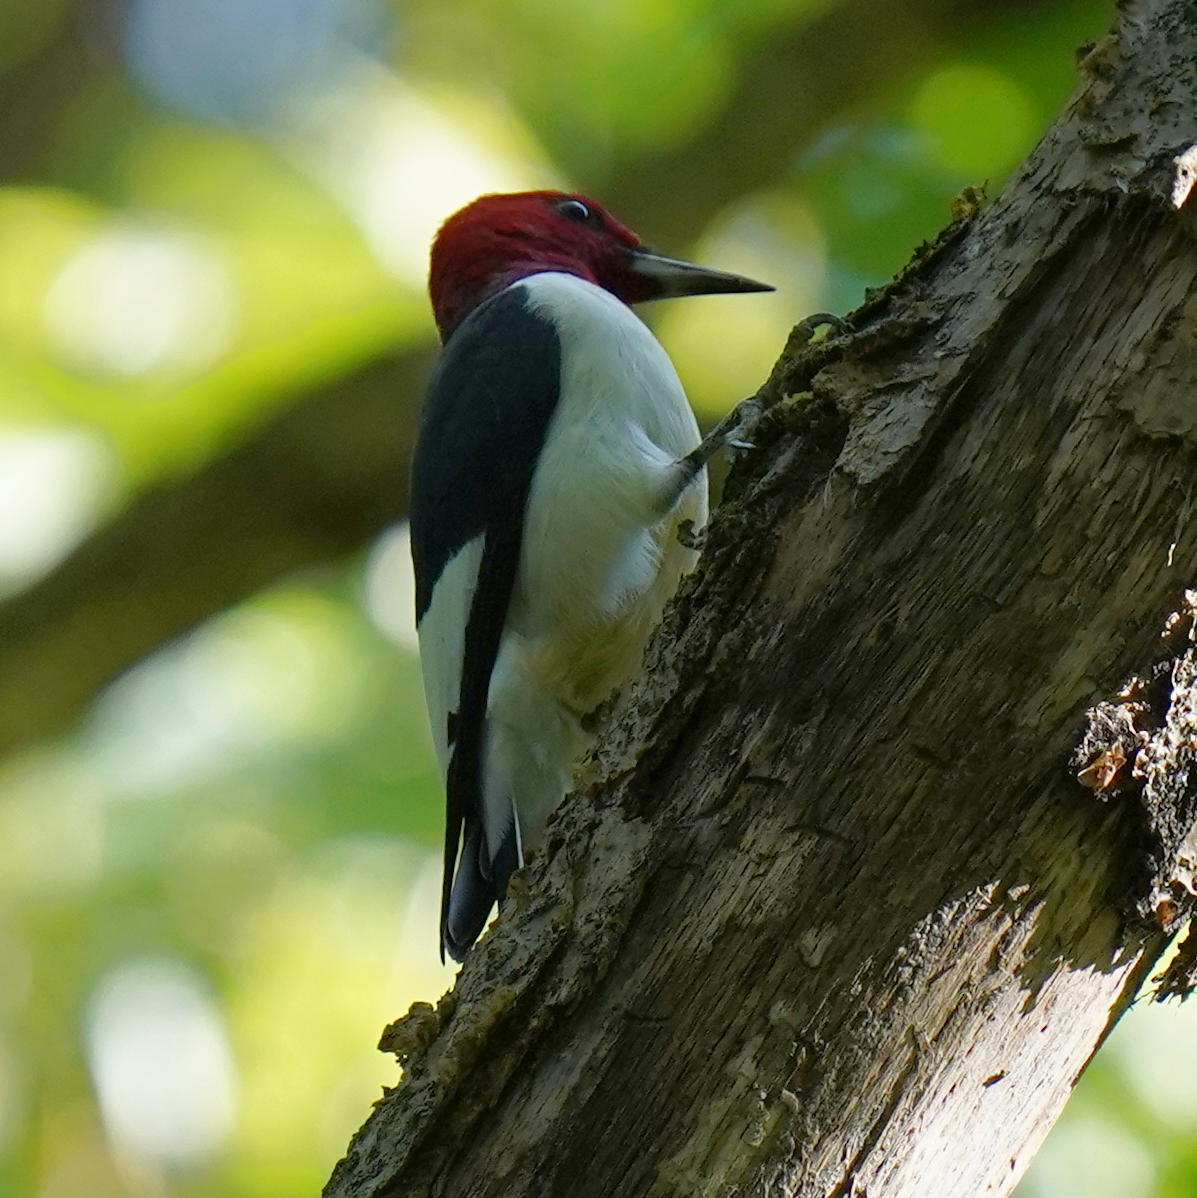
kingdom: Animalia
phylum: Chordata
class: Aves
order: Piciformes
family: Picidae
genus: Melanerpes
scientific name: Melanerpes erythrocephalus
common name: Red-headed woodpecker
